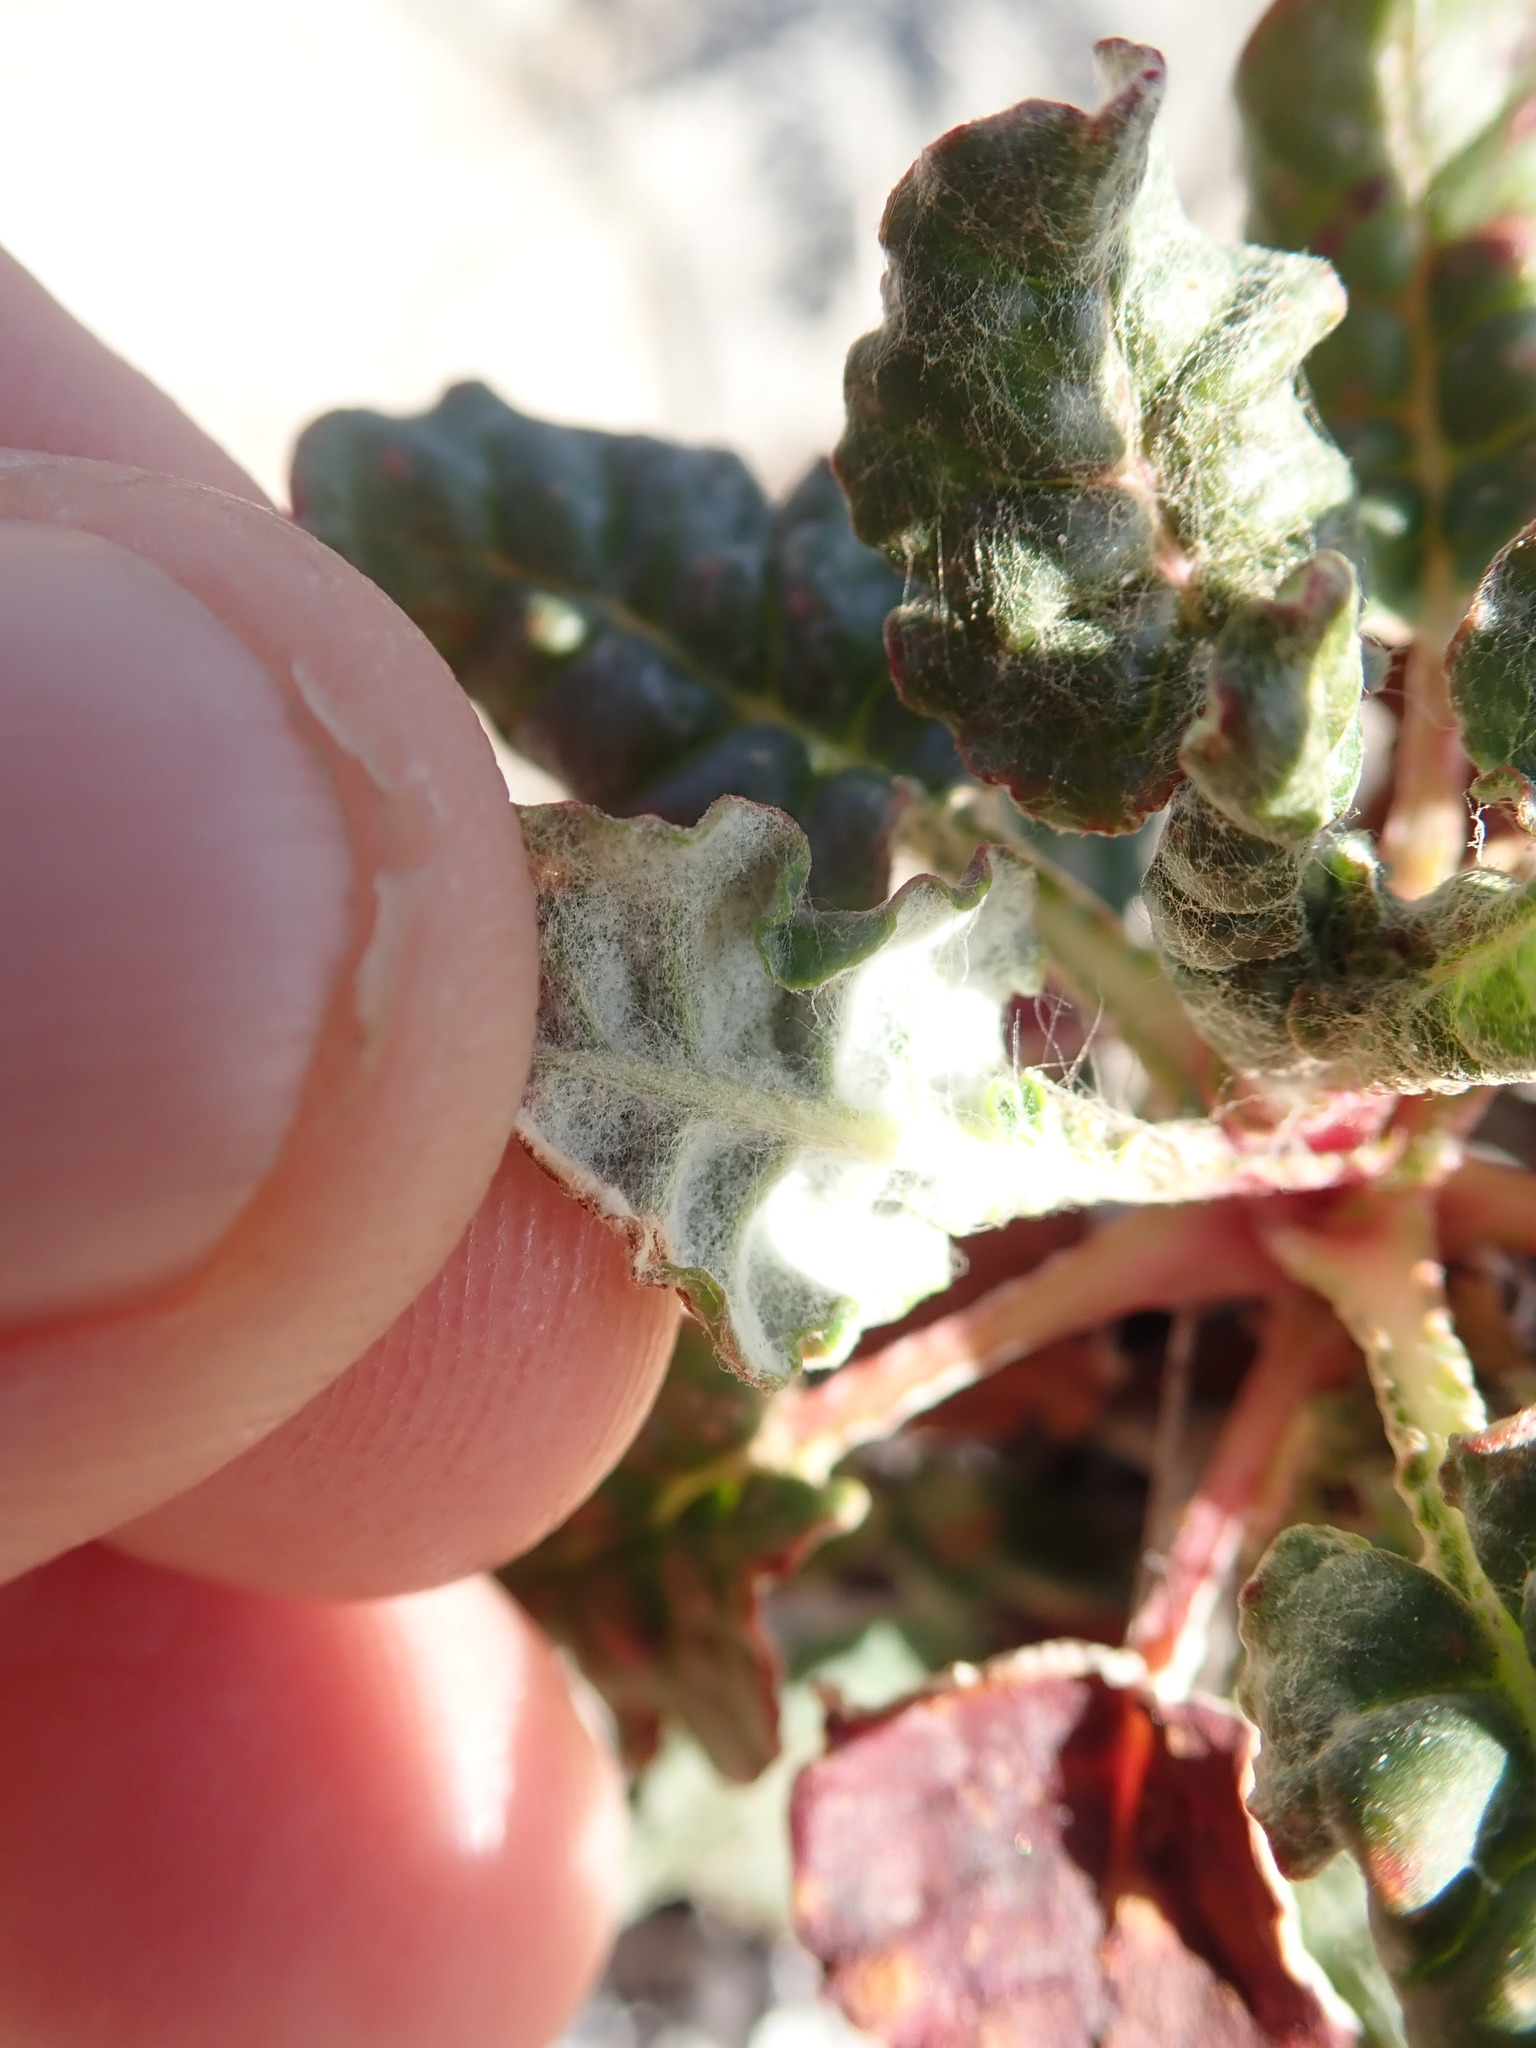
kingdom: Plantae
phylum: Tracheophyta
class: Magnoliopsida
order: Caryophyllales
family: Polygonaceae
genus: Eriogonum
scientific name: Eriogonum nudum
